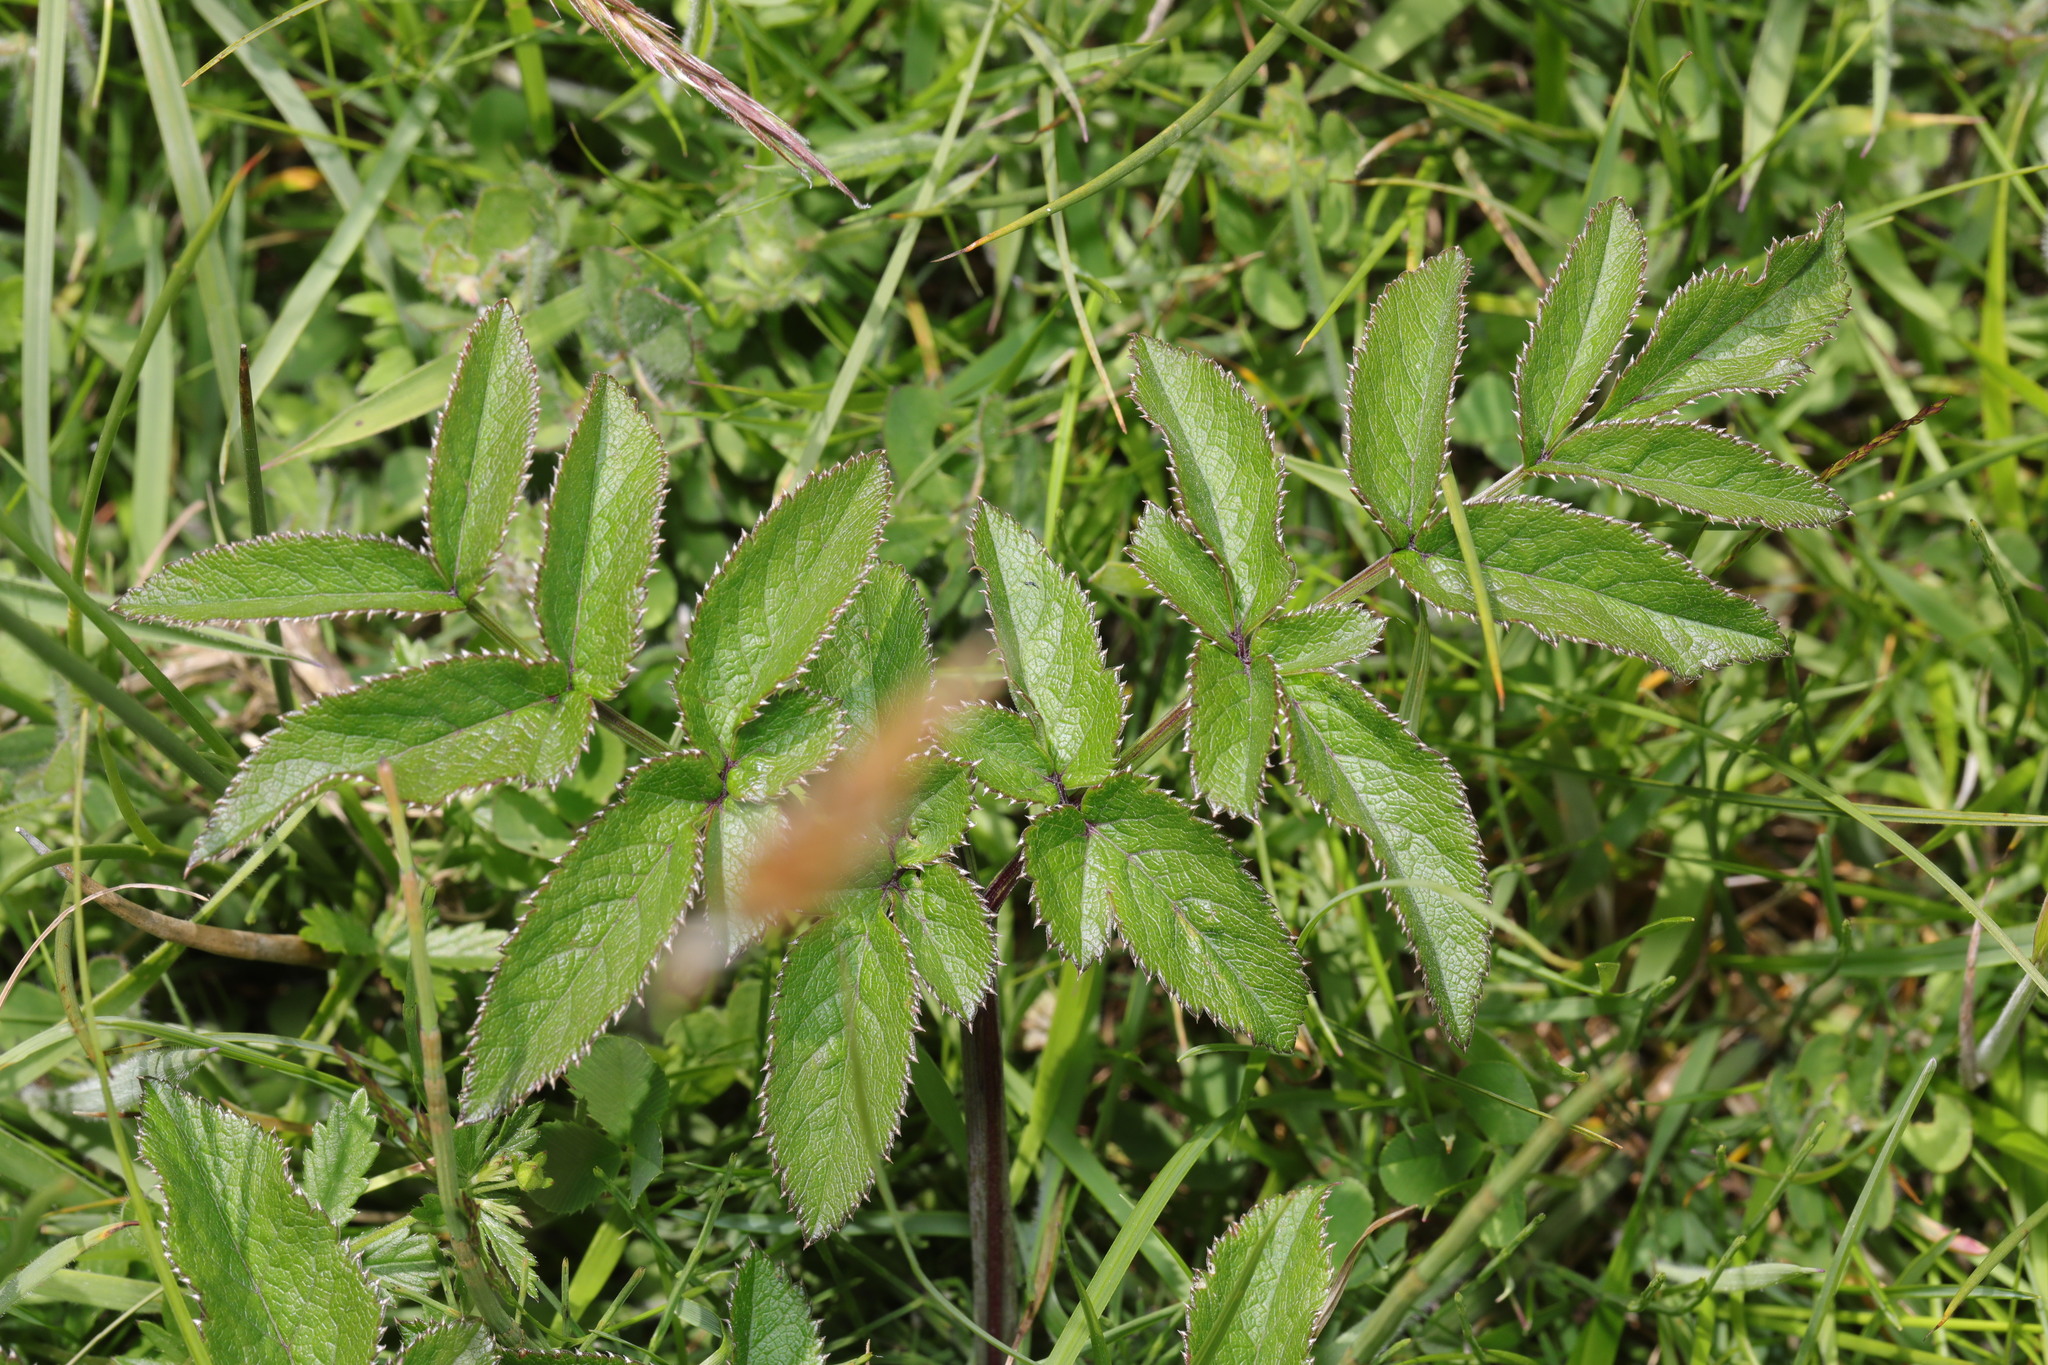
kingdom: Plantae
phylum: Tracheophyta
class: Magnoliopsida
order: Apiales
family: Apiaceae
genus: Angelica
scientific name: Angelica sylvestris
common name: Wild angelica
